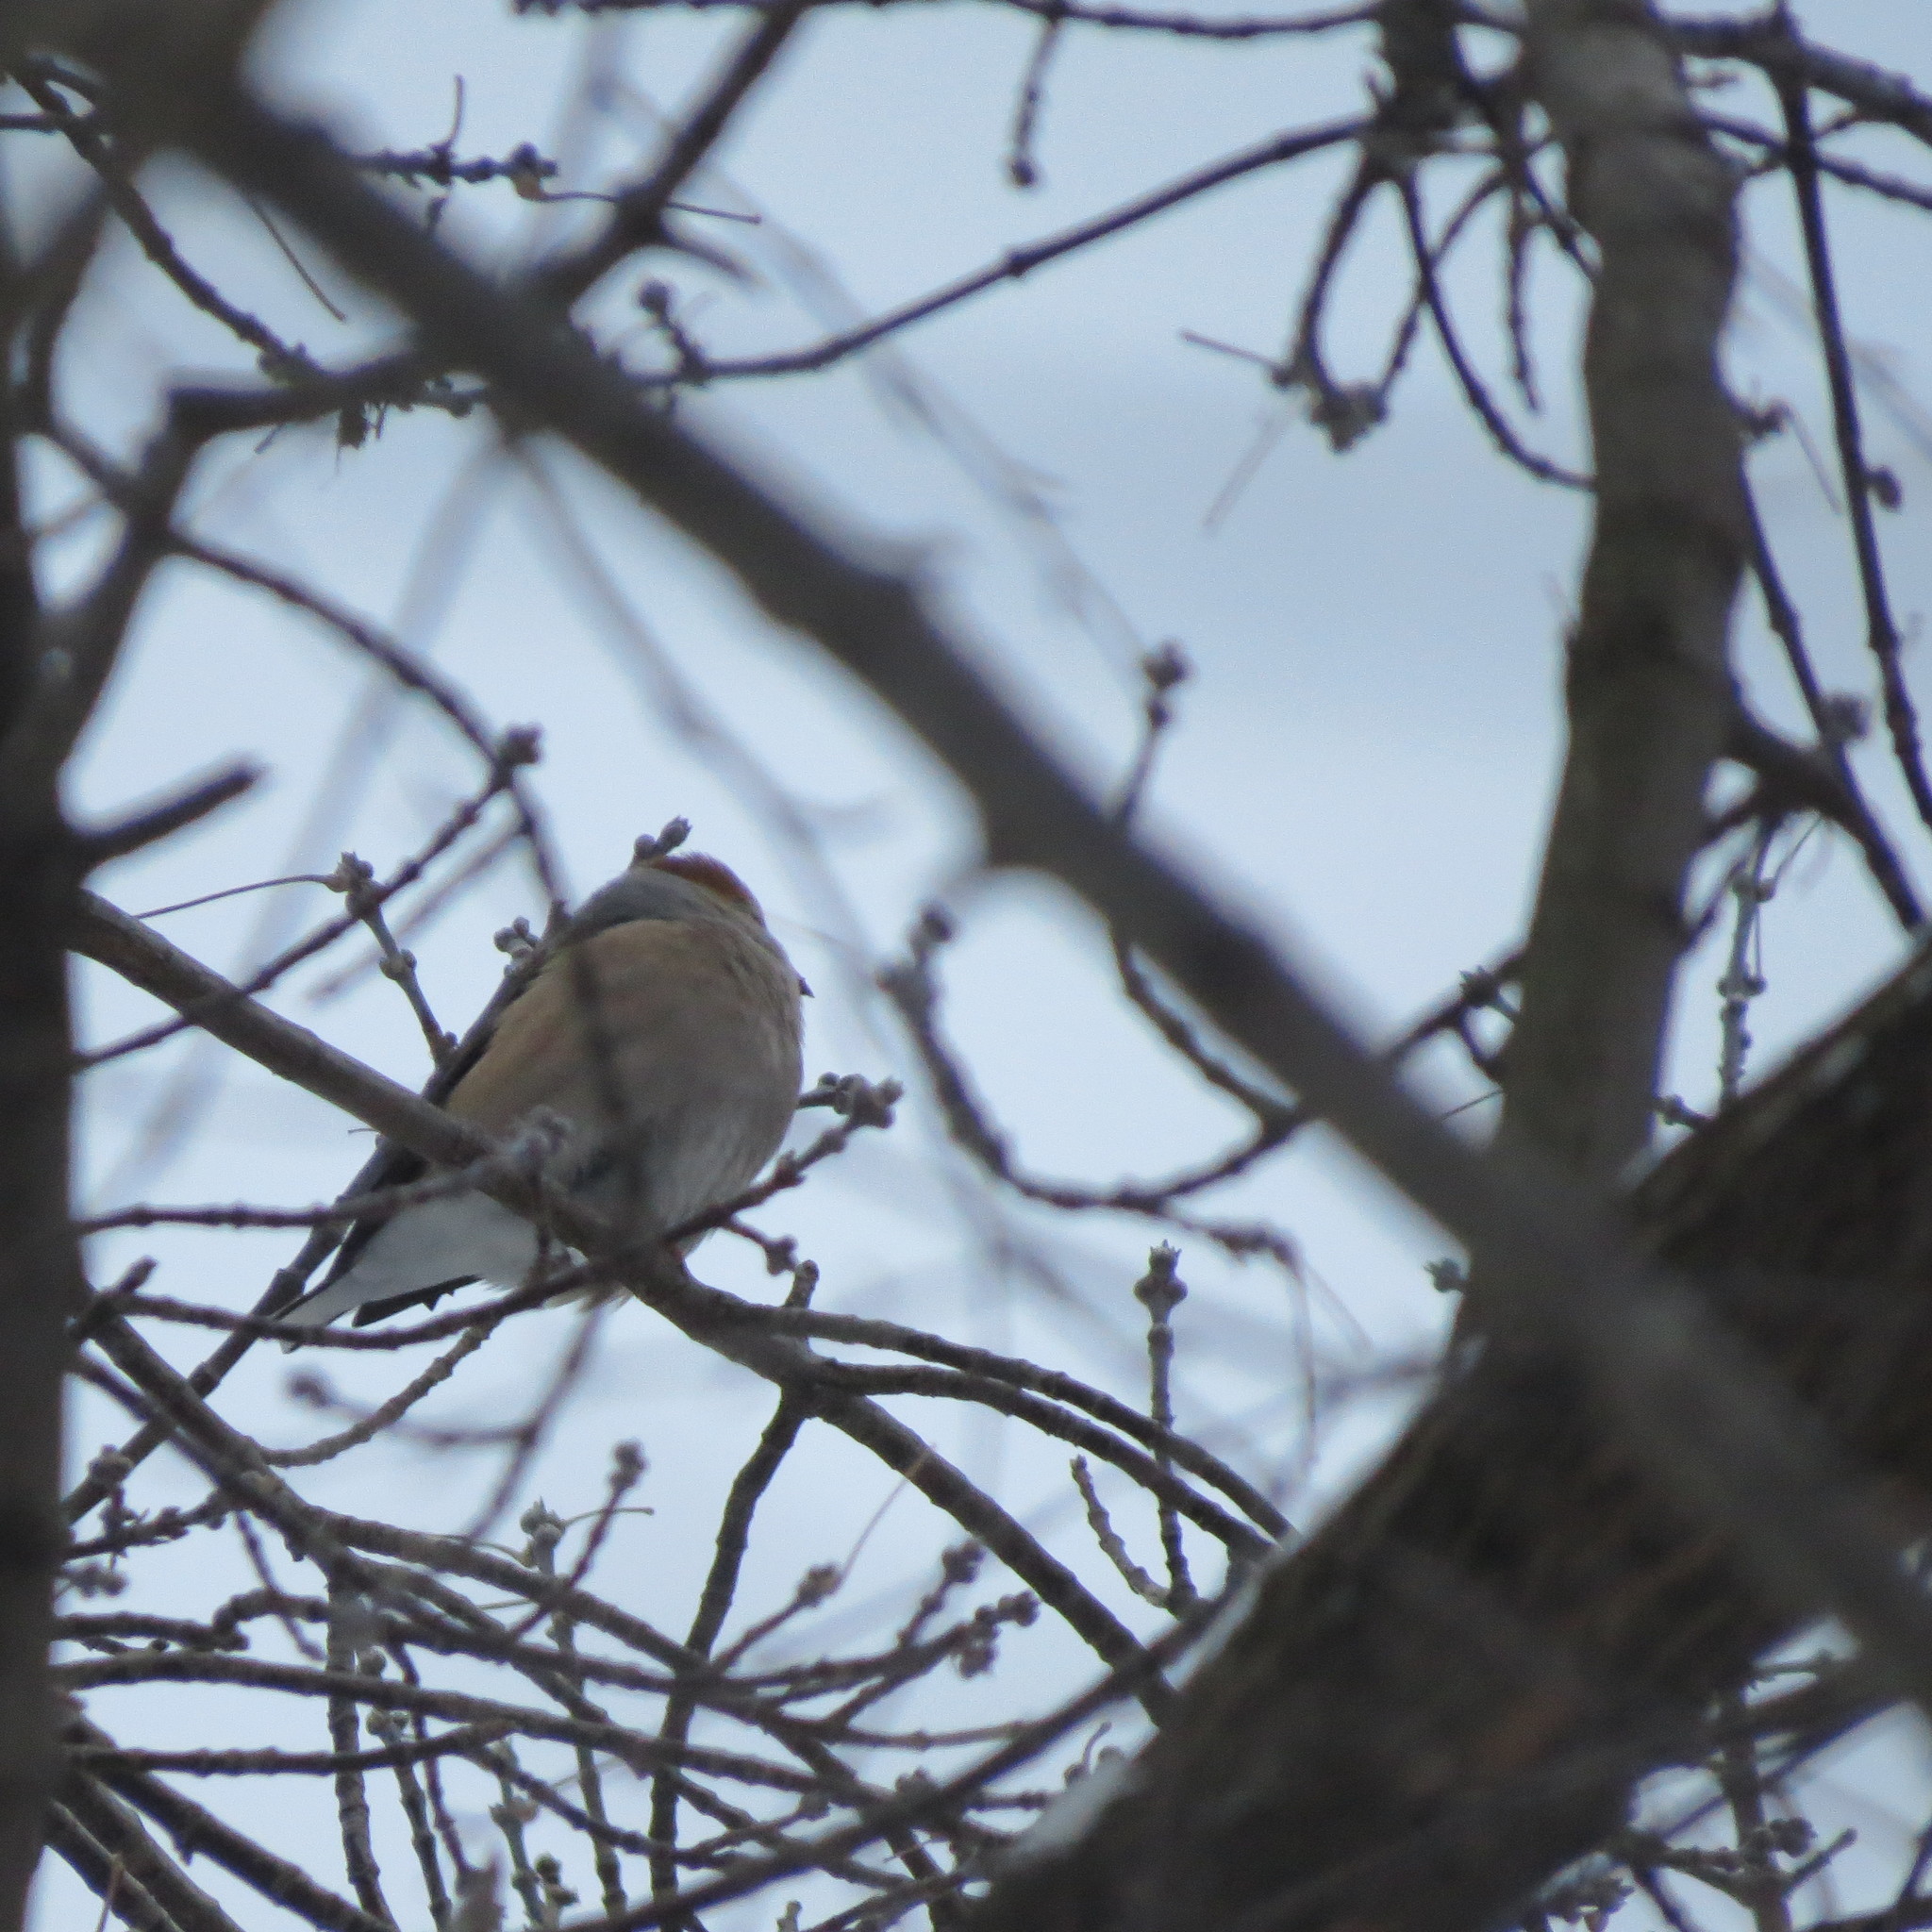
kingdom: Animalia
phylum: Chordata
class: Aves
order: Passeriformes
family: Fringillidae
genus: Coccothraustes
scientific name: Coccothraustes coccothraustes
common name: Hawfinch
